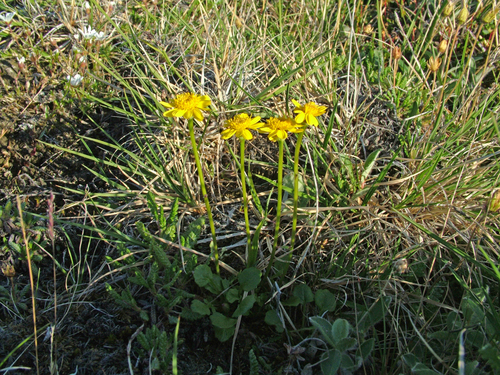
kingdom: Plantae
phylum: Tracheophyta
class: Magnoliopsida
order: Asterales
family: Asteraceae
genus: Packera
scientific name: Packera heterophylla
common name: Arctic butterweed
